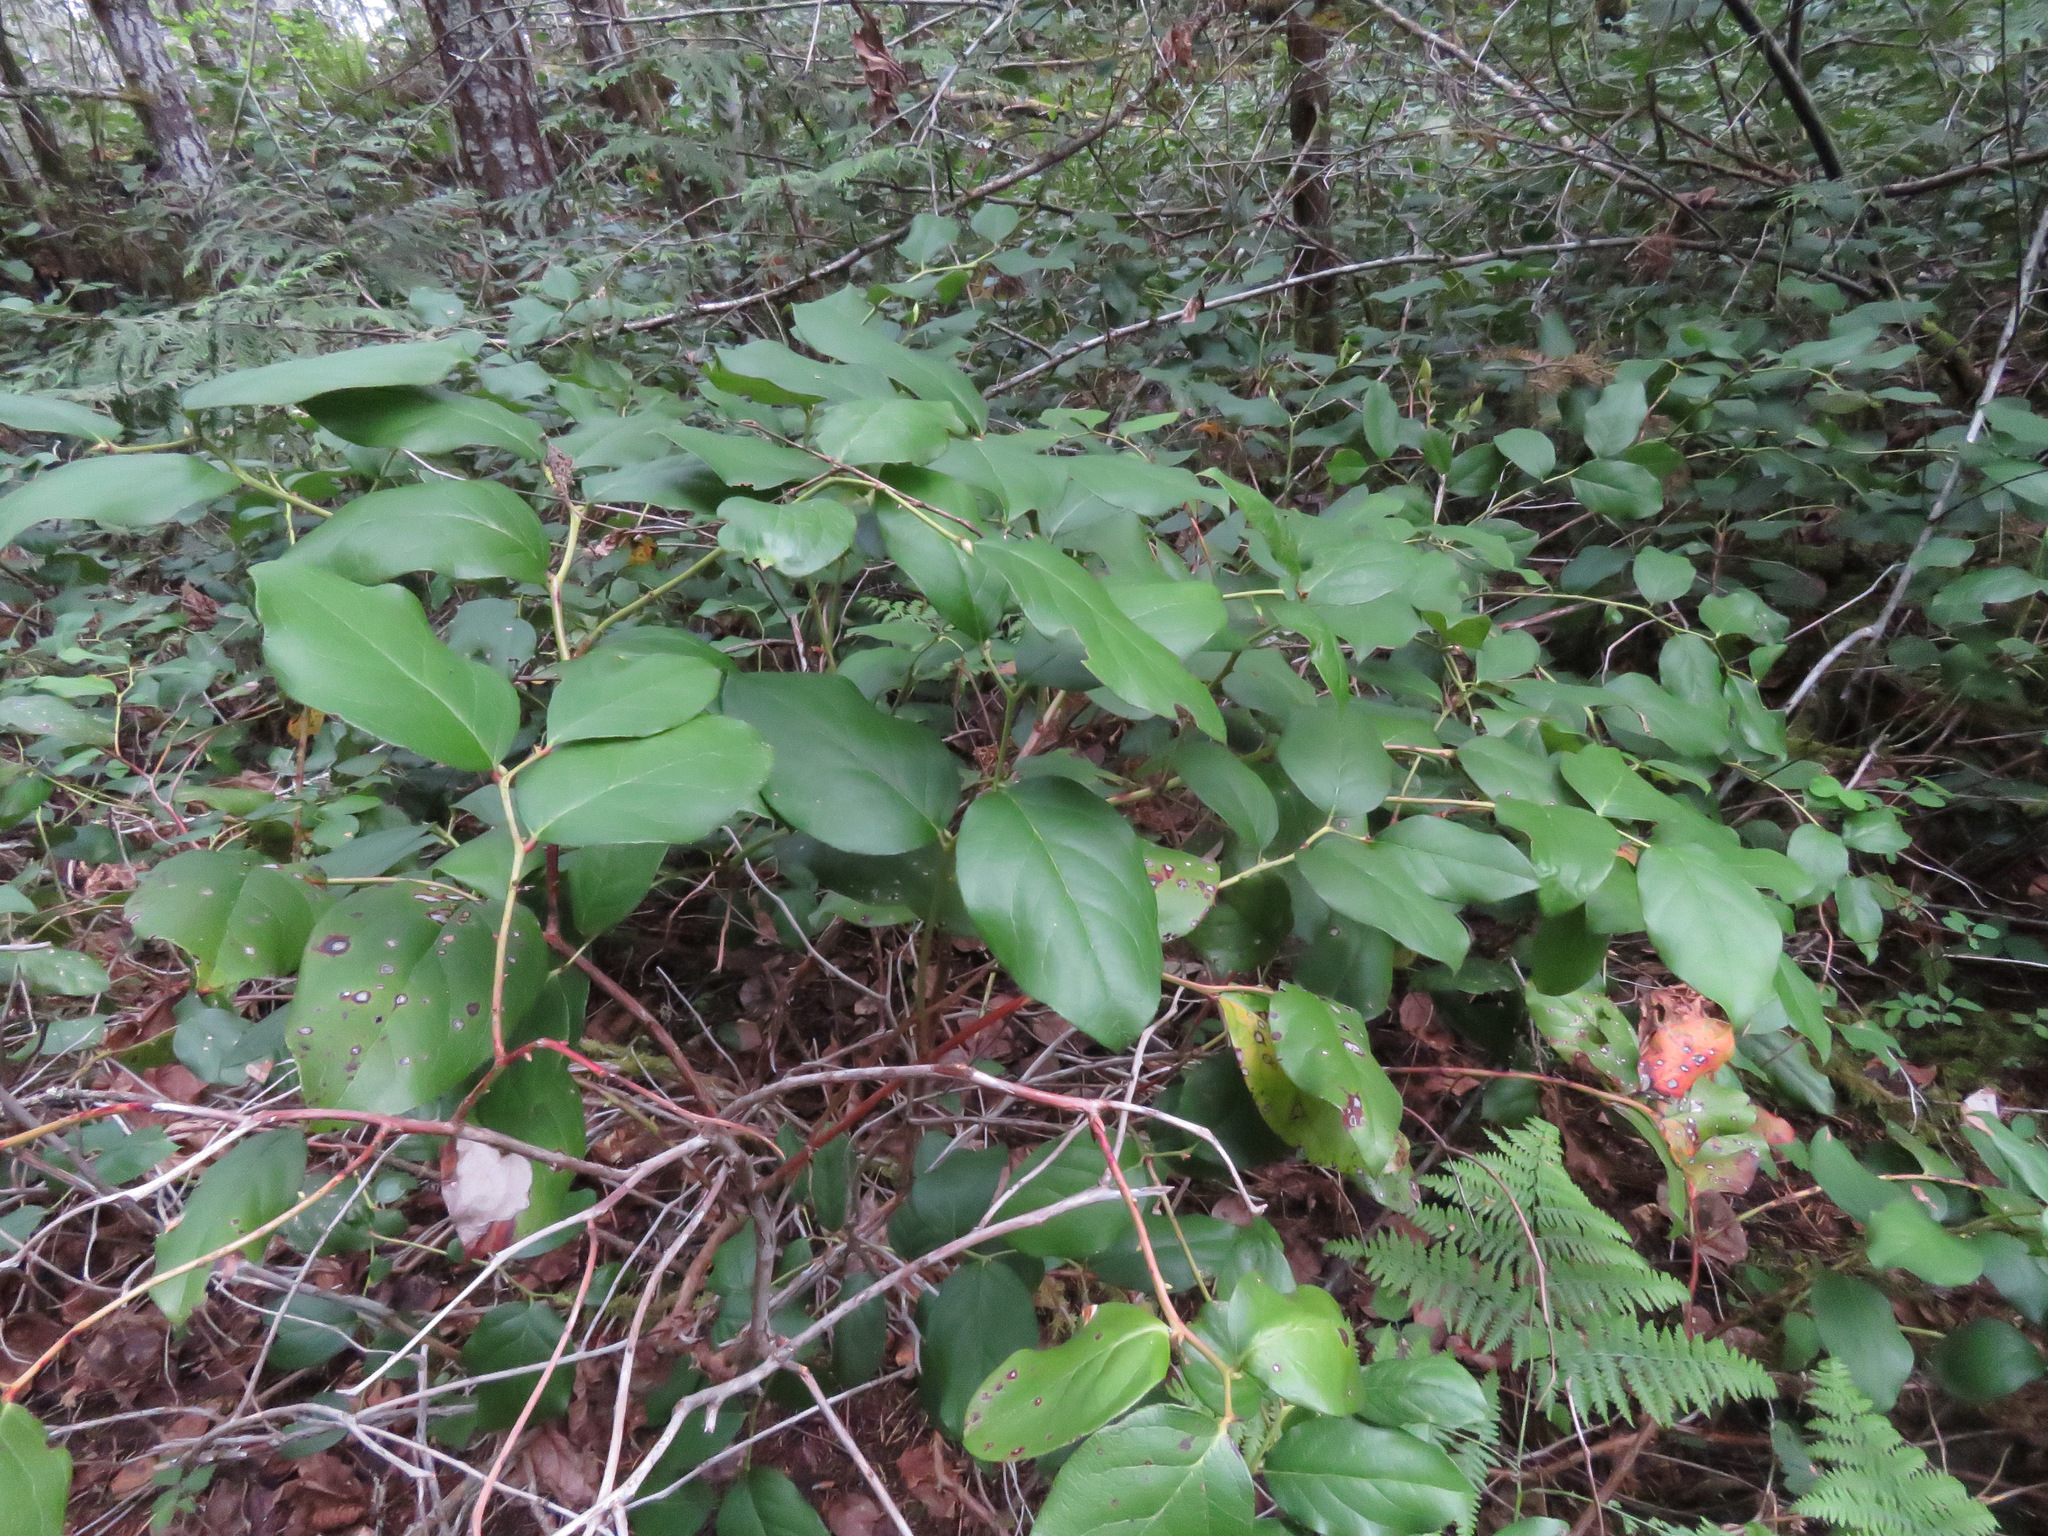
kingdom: Plantae
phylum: Tracheophyta
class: Magnoliopsida
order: Ericales
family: Ericaceae
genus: Gaultheria
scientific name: Gaultheria shallon
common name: Shallon
